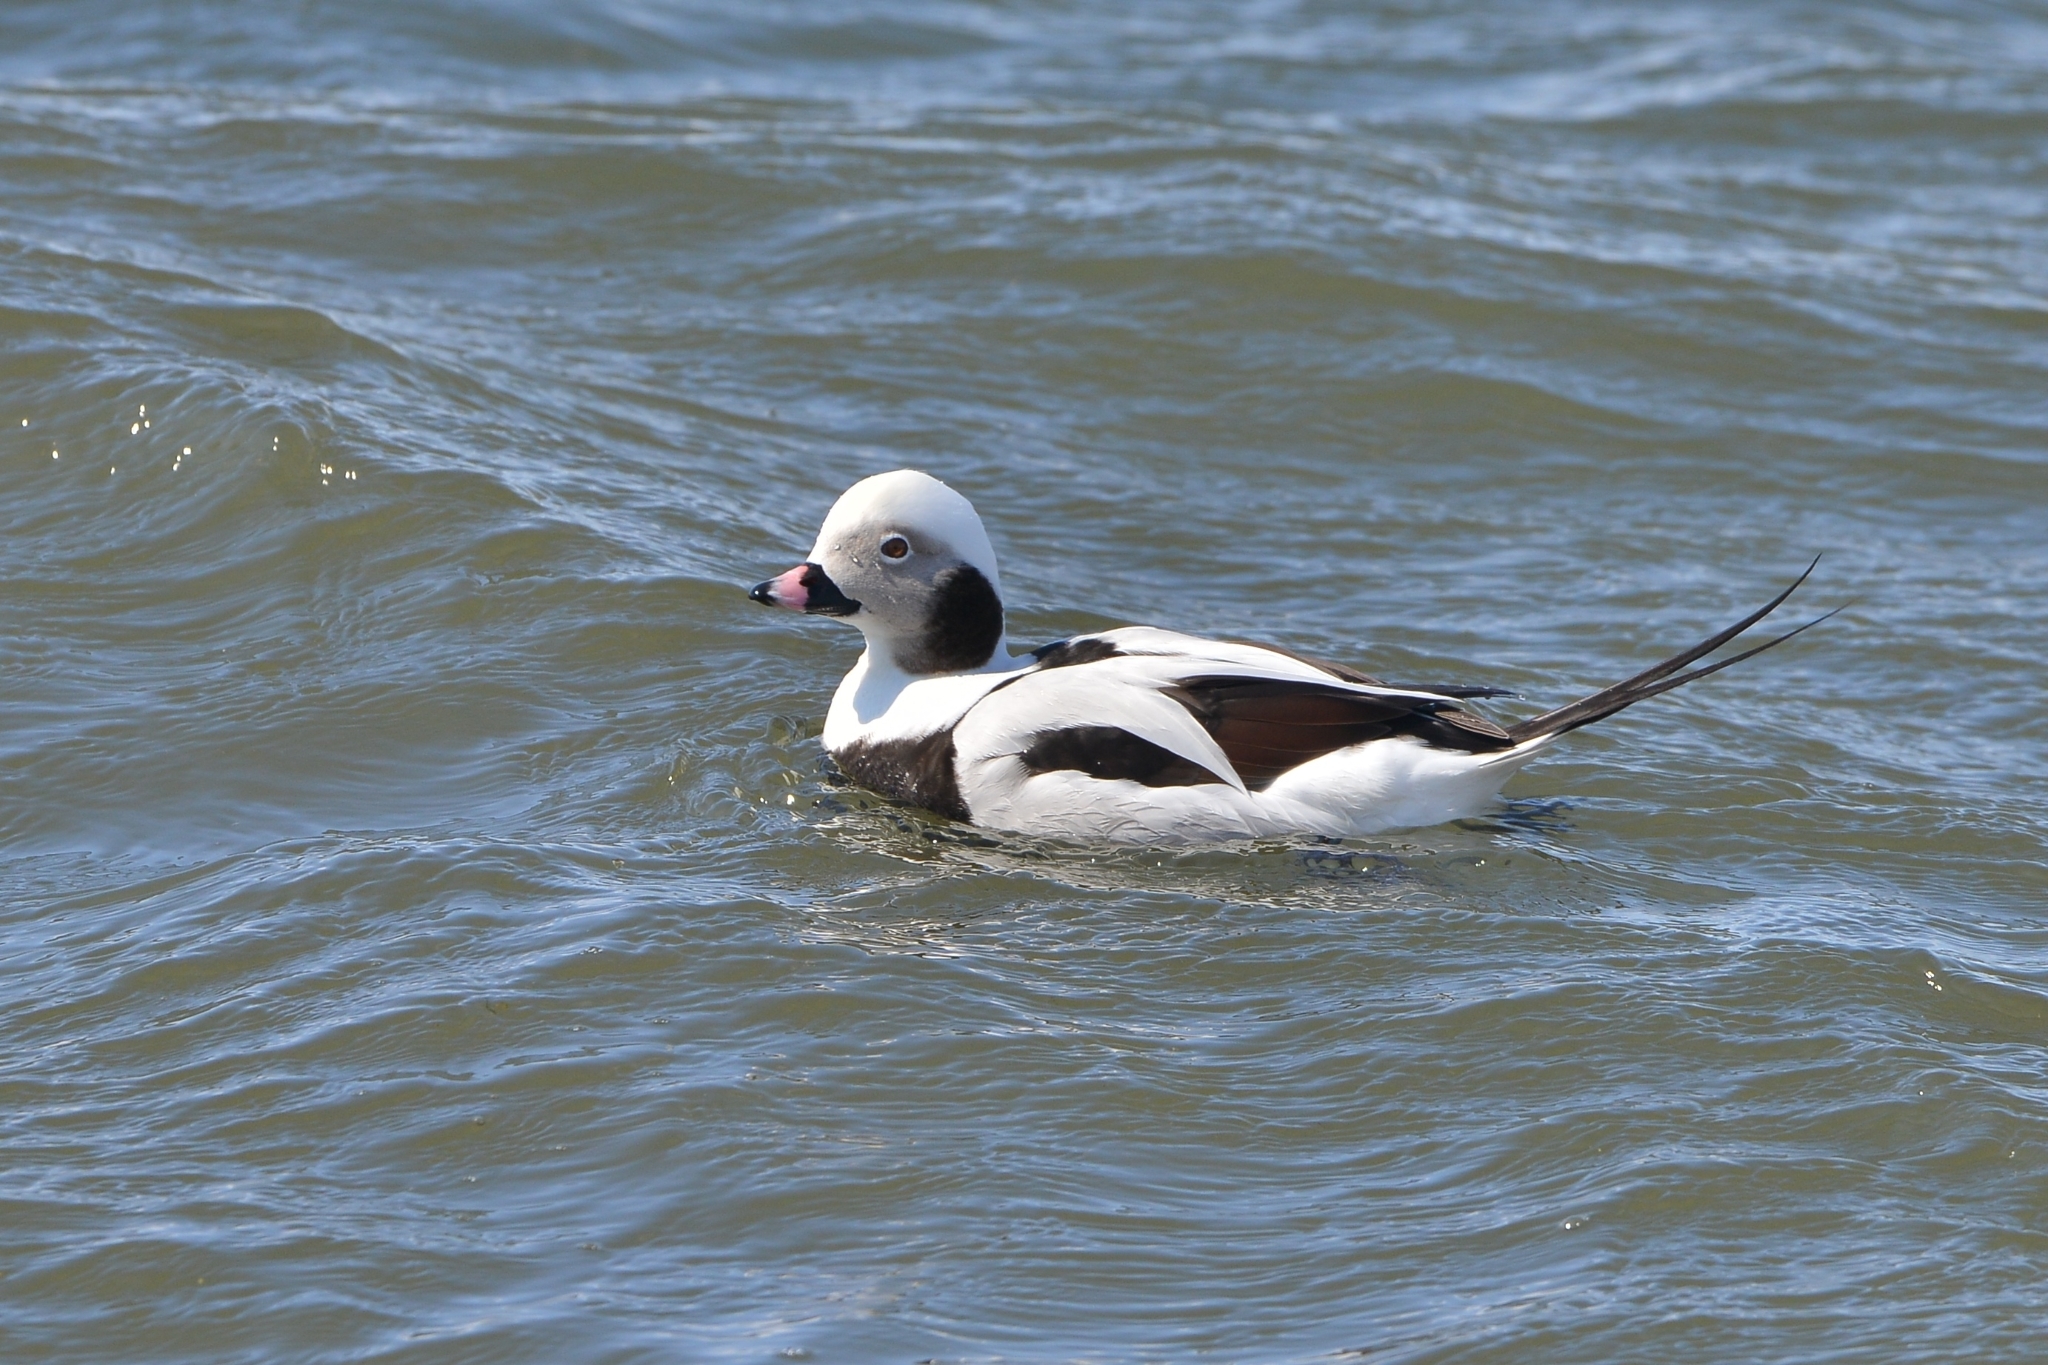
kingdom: Animalia
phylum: Chordata
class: Aves
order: Anseriformes
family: Anatidae
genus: Clangula
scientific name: Clangula hyemalis
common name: Long-tailed duck
